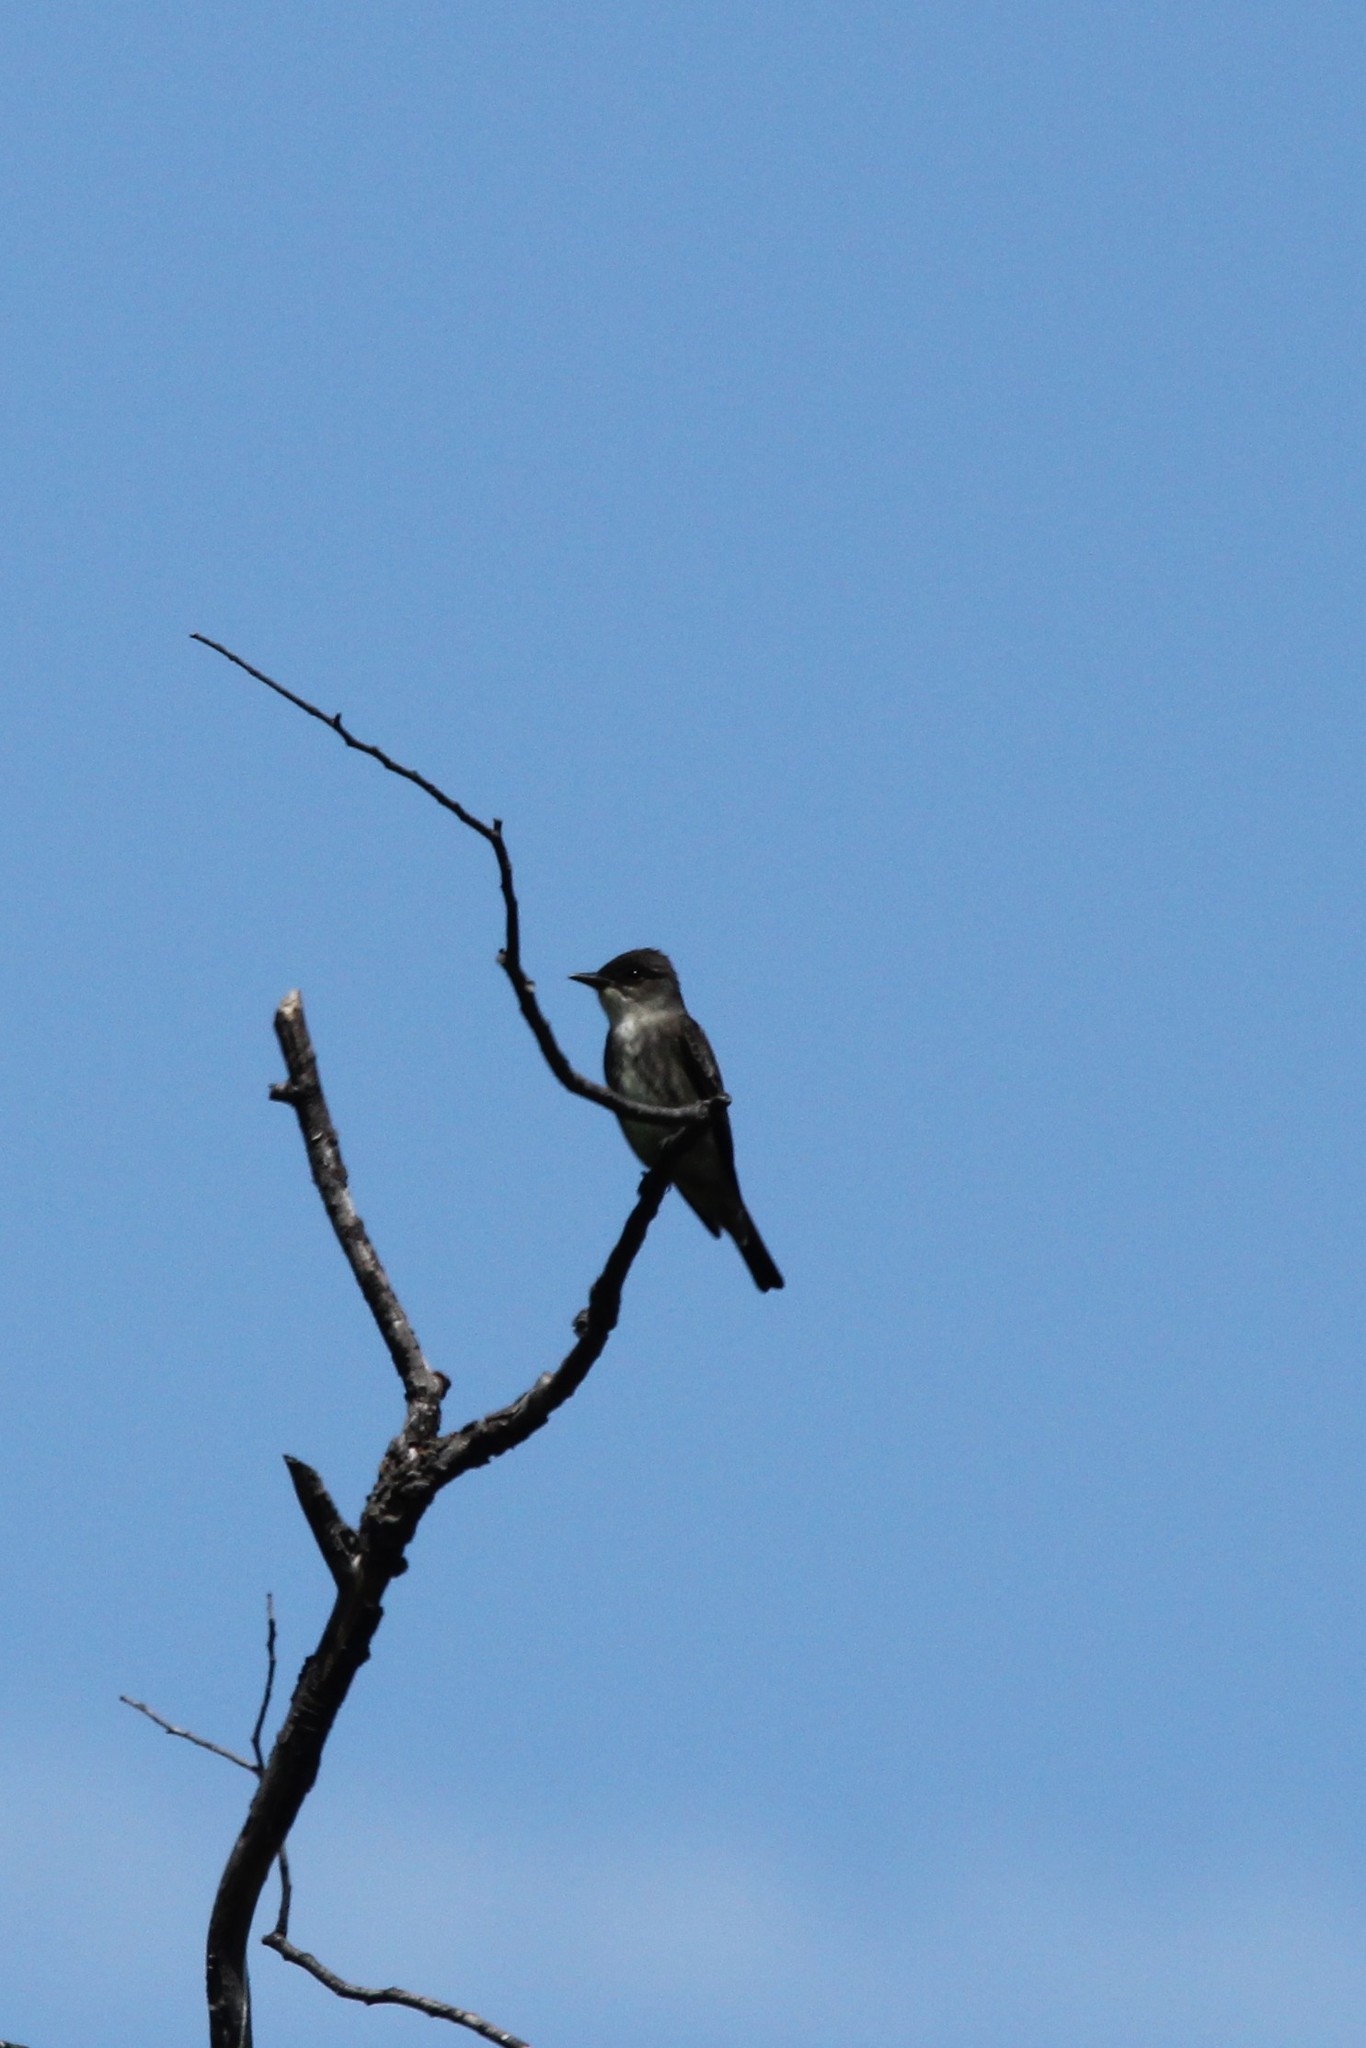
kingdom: Animalia
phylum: Chordata
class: Aves
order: Passeriformes
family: Tyrannidae
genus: Contopus
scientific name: Contopus cooperi
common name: Olive-sided flycatcher
